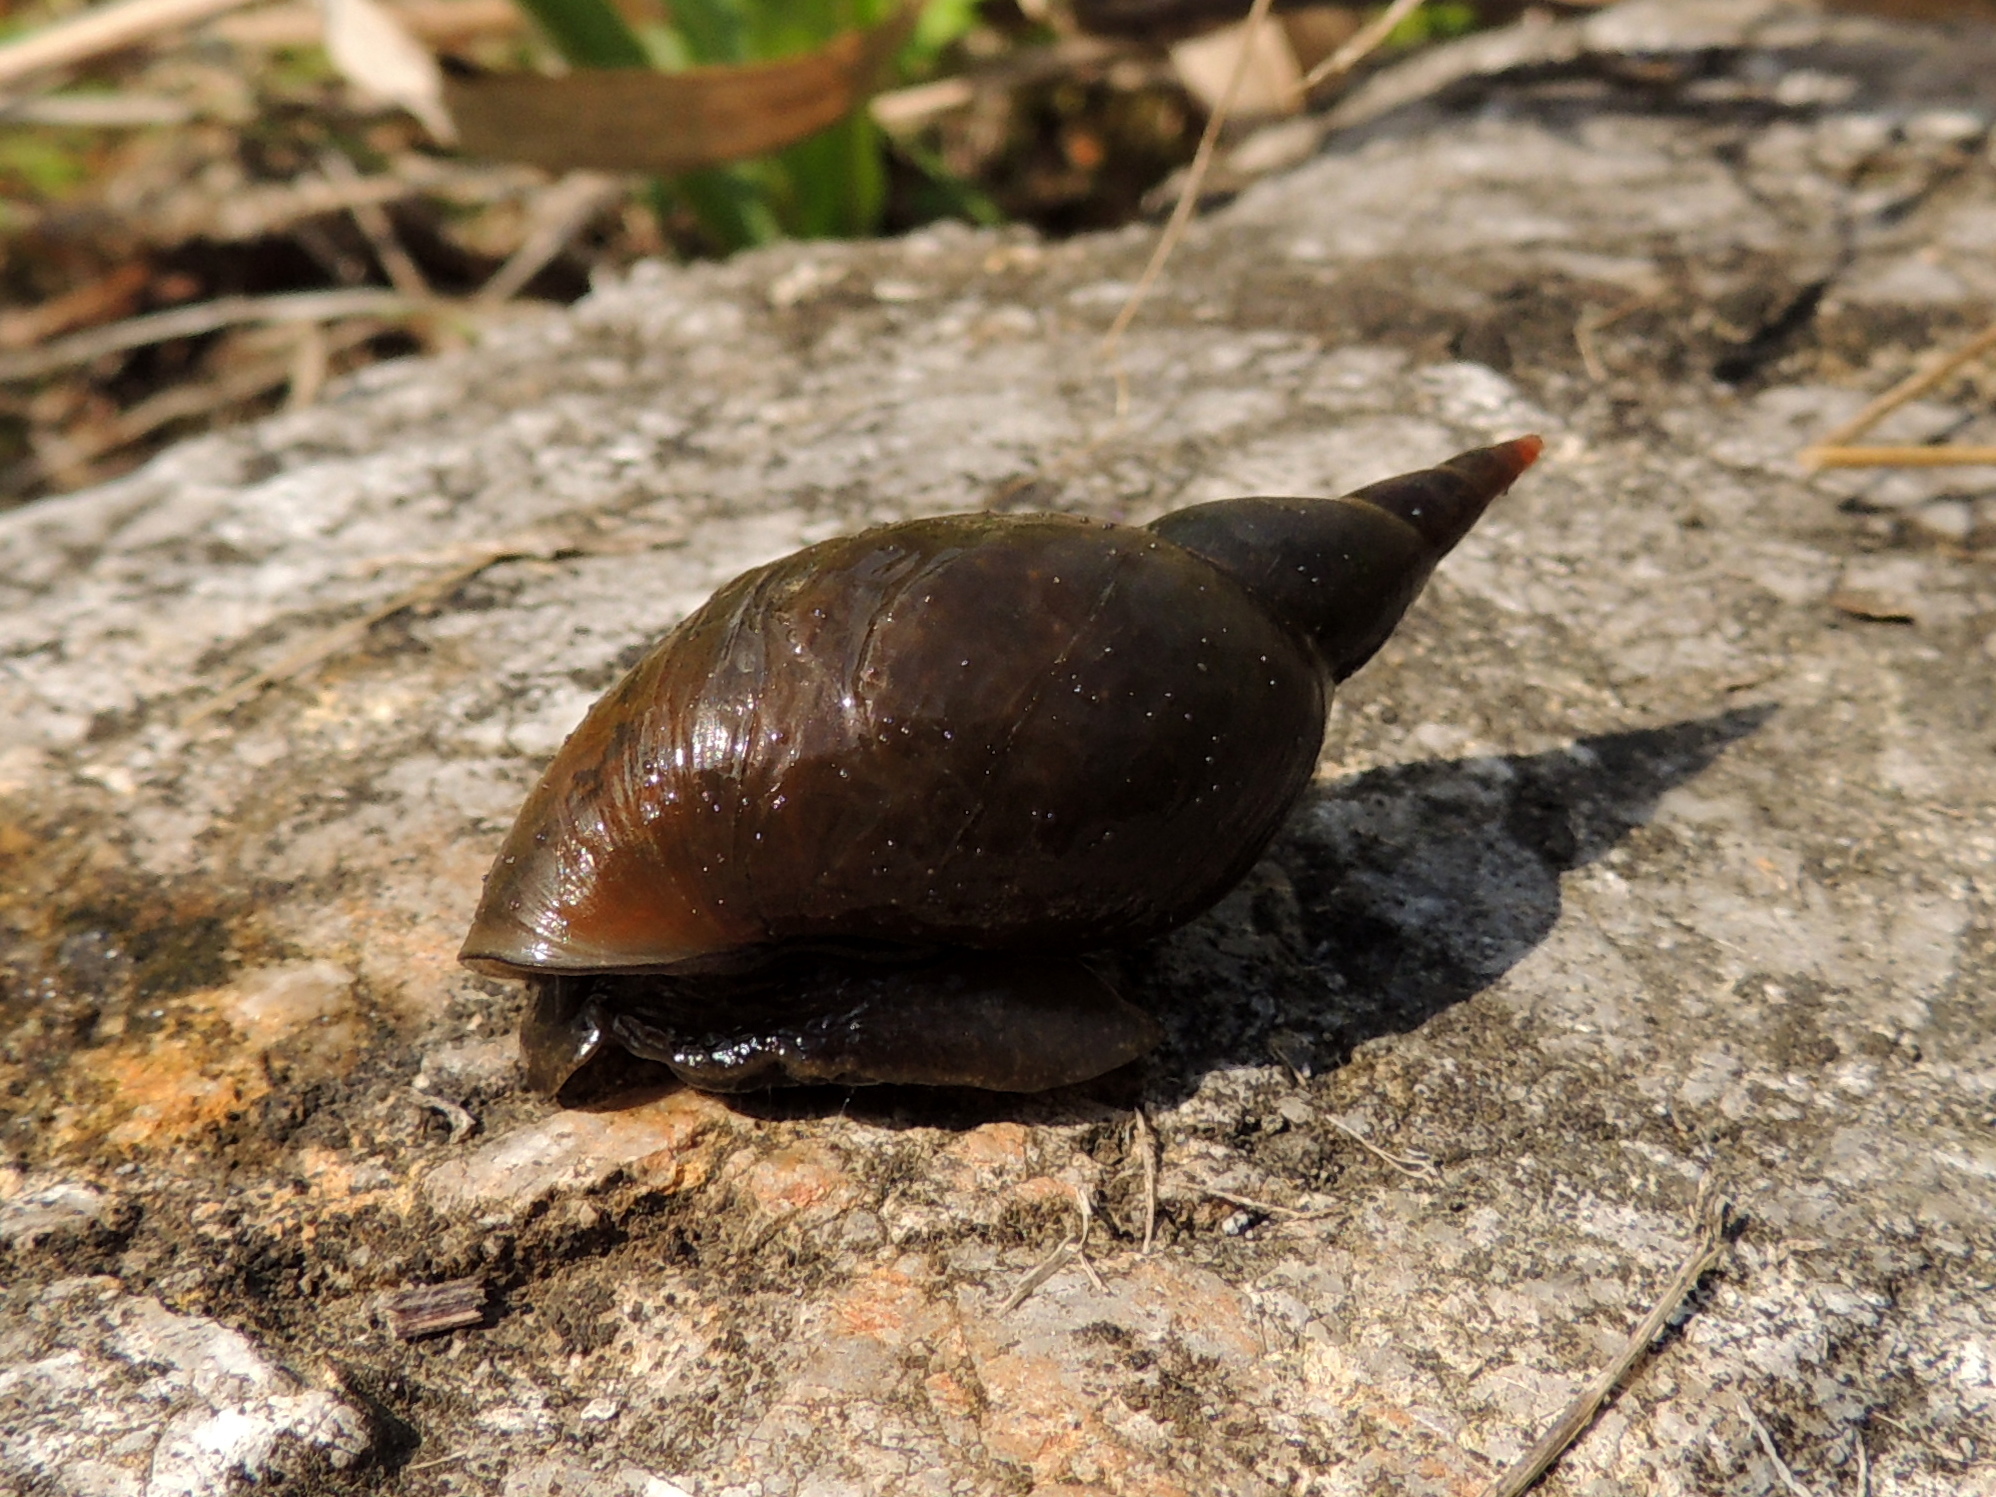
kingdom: Animalia
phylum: Mollusca
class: Gastropoda
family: Lymnaeidae
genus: Lymnaea
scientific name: Lymnaea stagnalis
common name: Great pond snail
